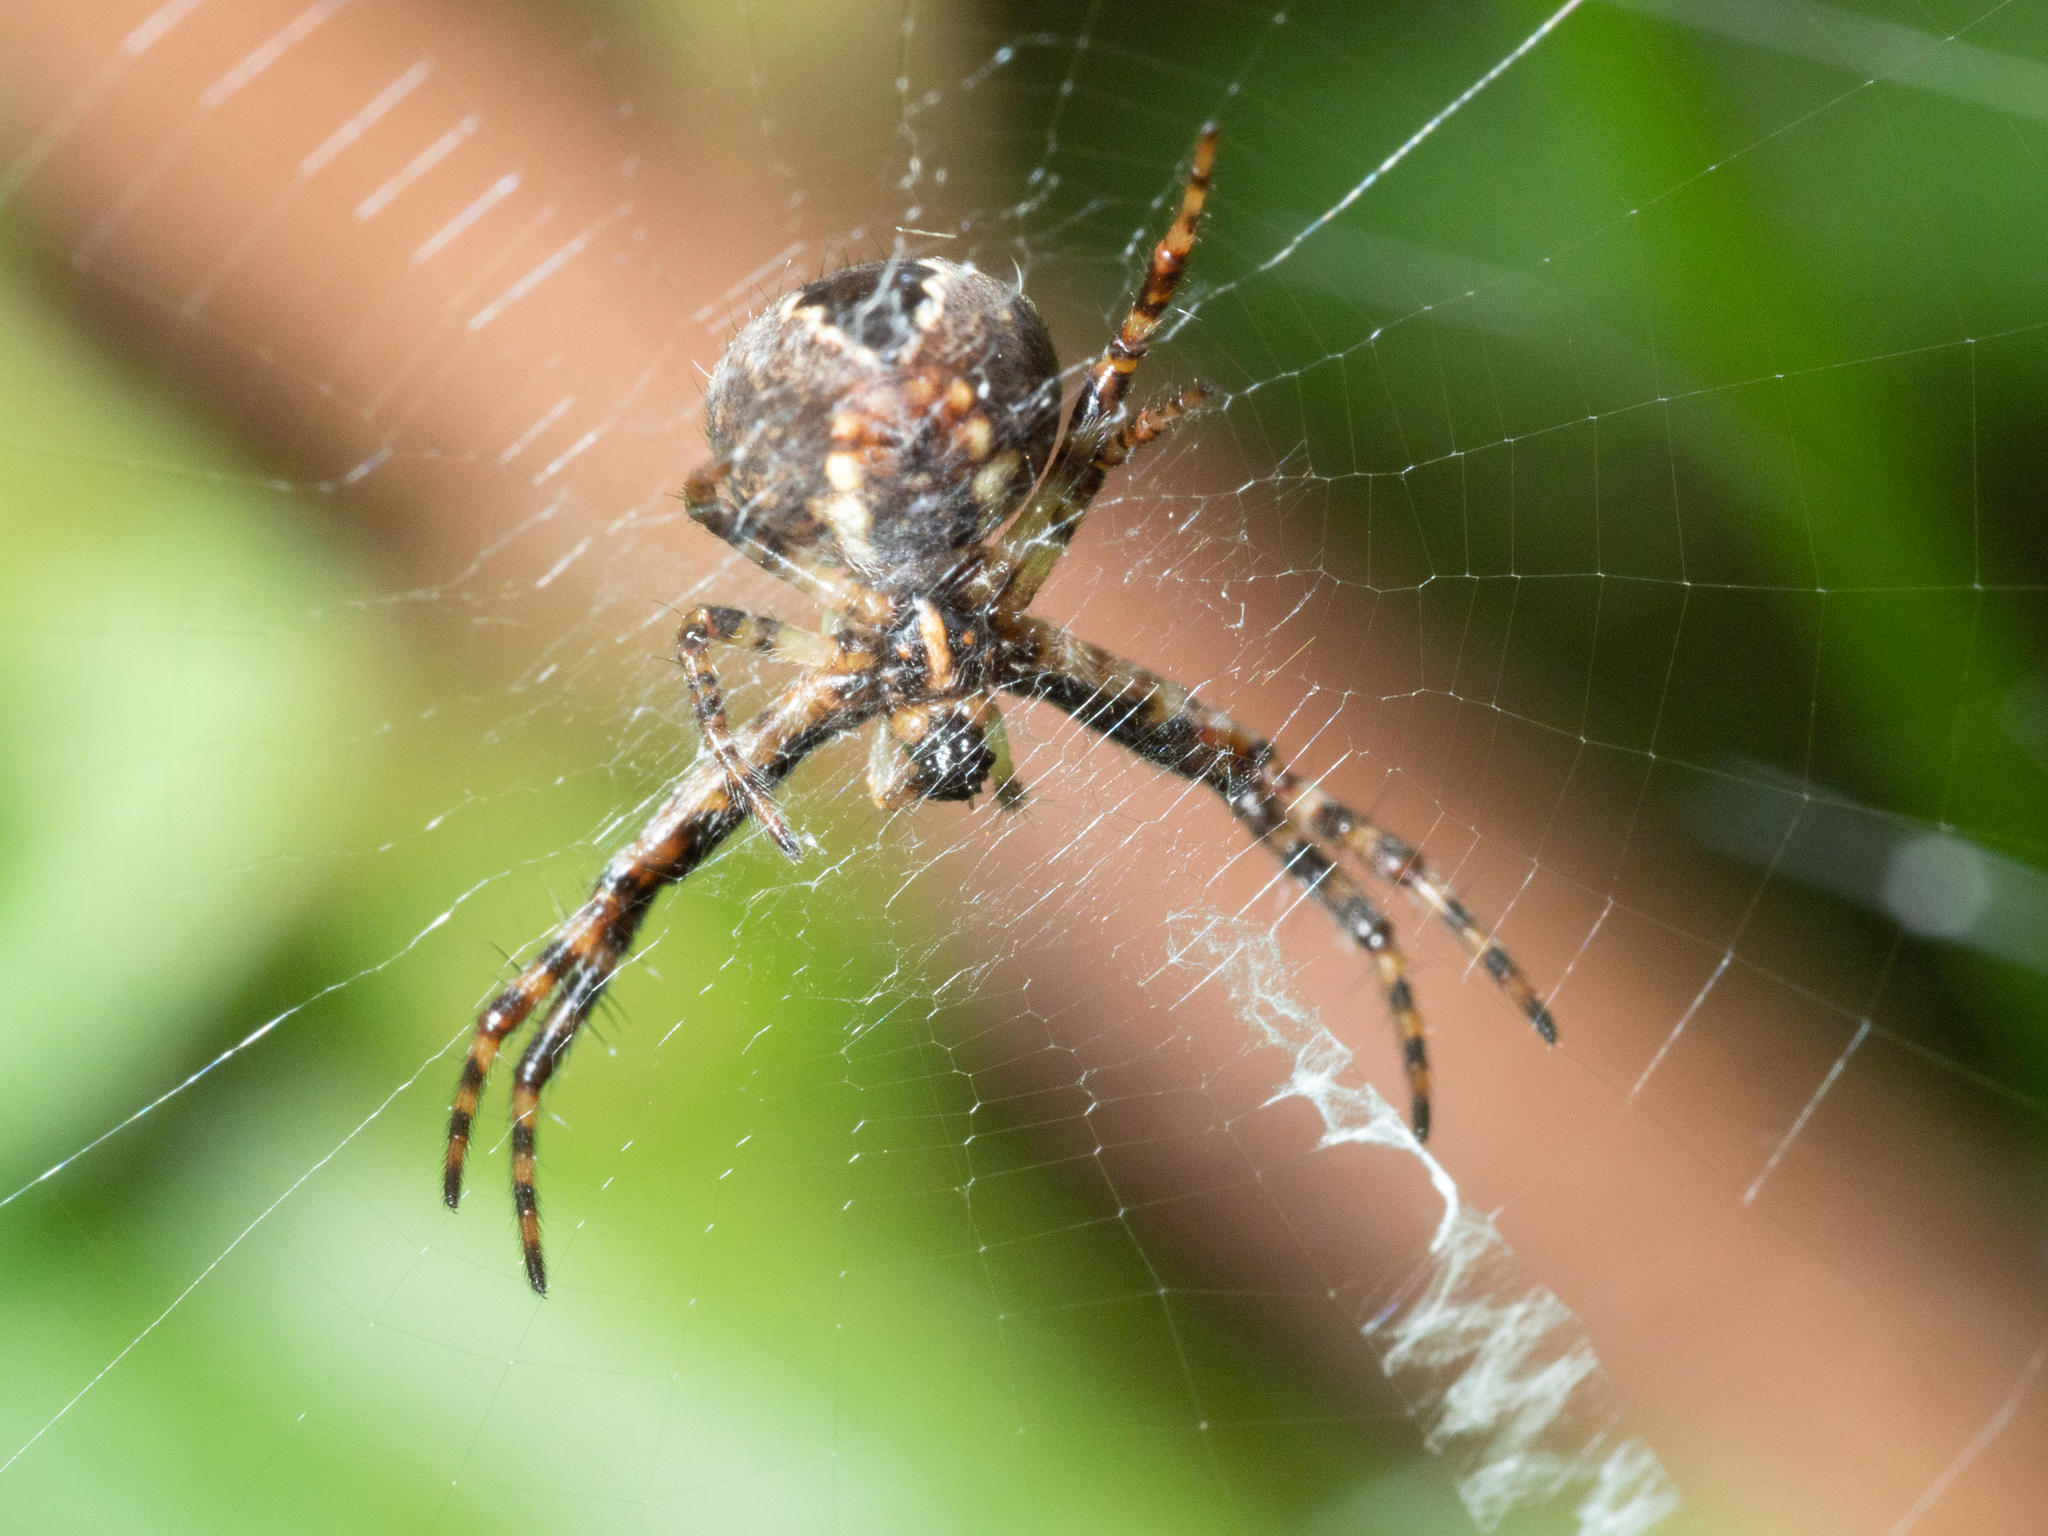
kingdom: Animalia
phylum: Arthropoda
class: Arachnida
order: Araneae
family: Araneidae
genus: Gea
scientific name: Gea theridioides
